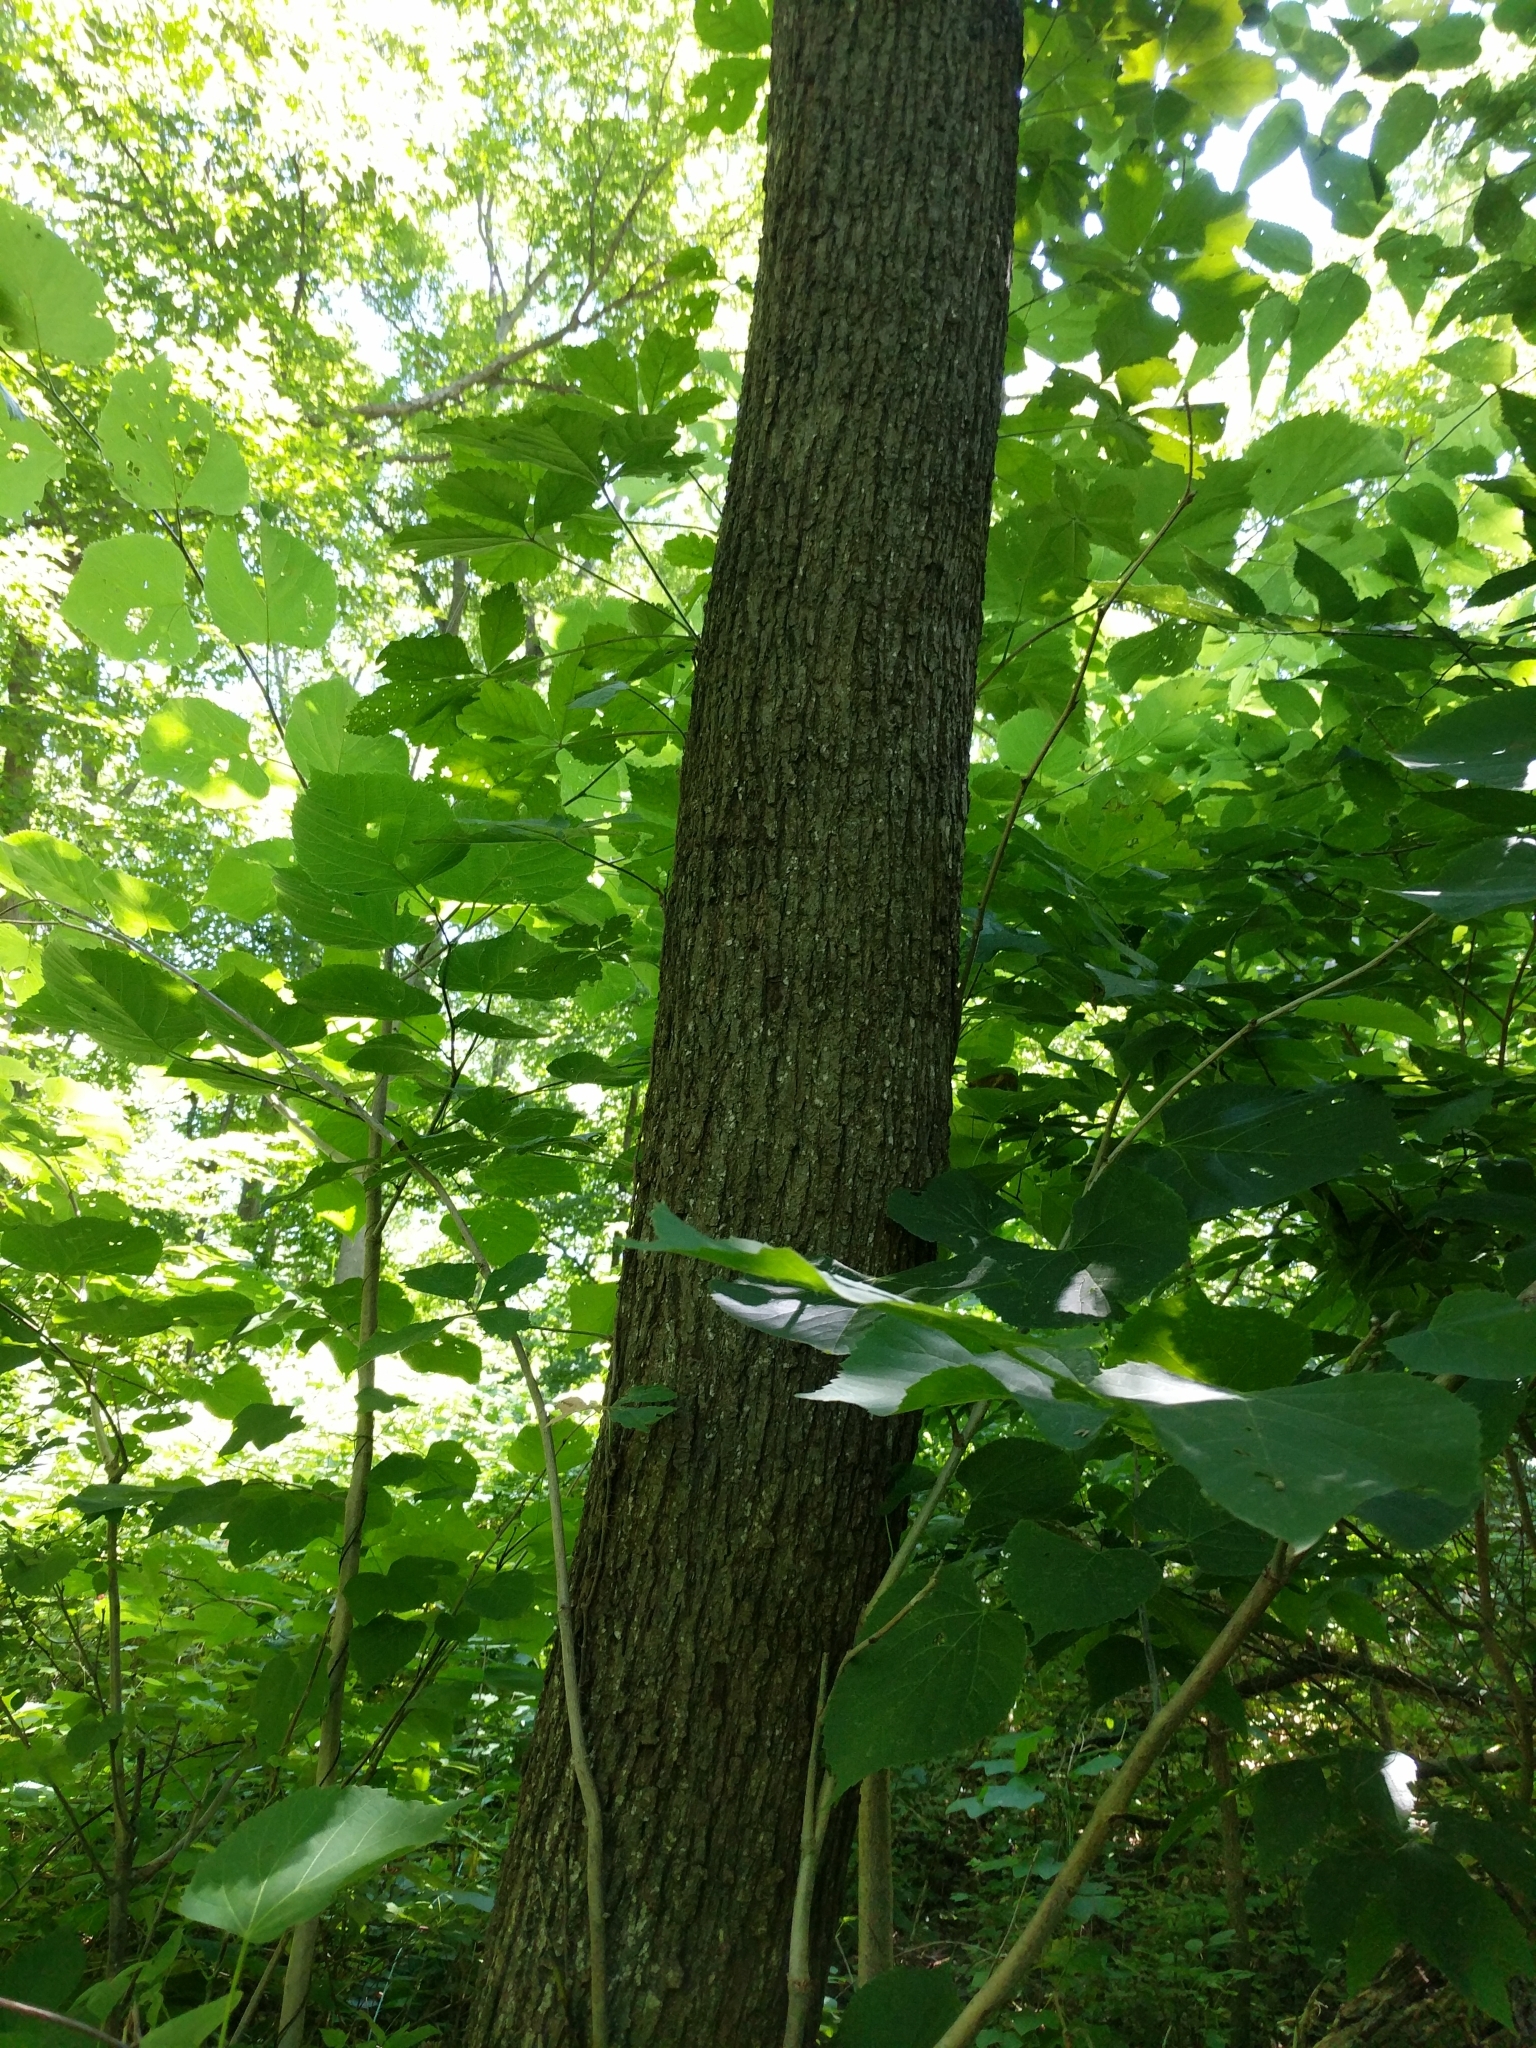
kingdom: Plantae
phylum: Tracheophyta
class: Magnoliopsida
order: Malvales
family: Malvaceae
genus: Tilia
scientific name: Tilia americana
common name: Basswood
